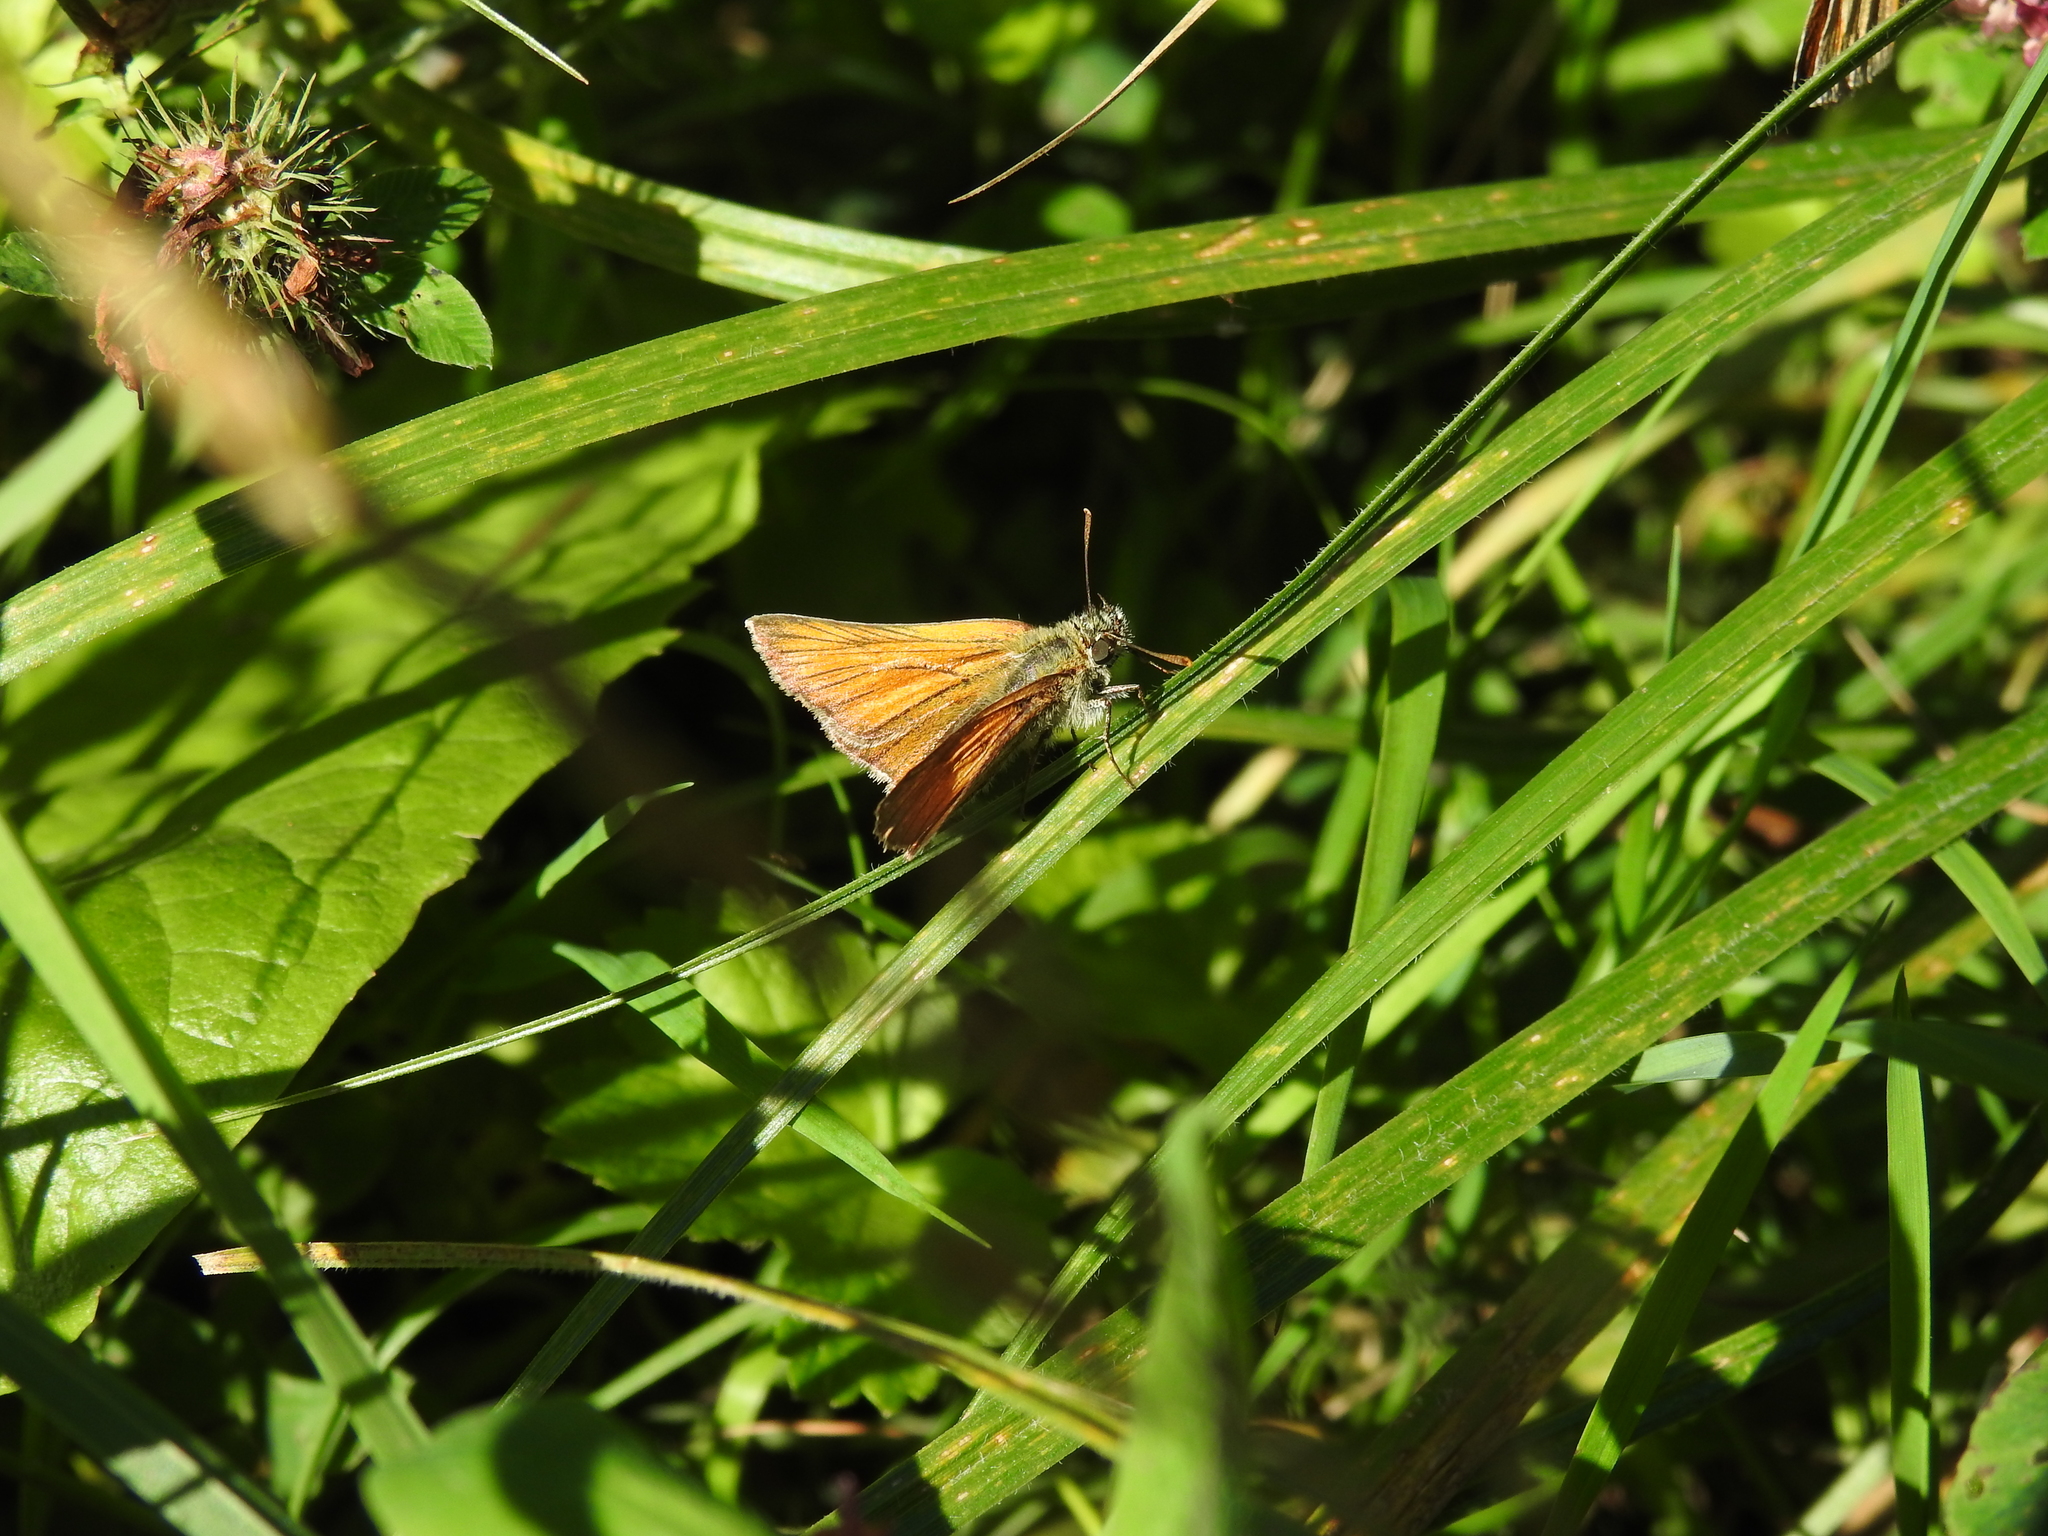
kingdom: Animalia
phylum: Arthropoda
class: Insecta
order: Lepidoptera
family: Hesperiidae
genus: Thymelicus
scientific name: Thymelicus sylvestris
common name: Small skipper
